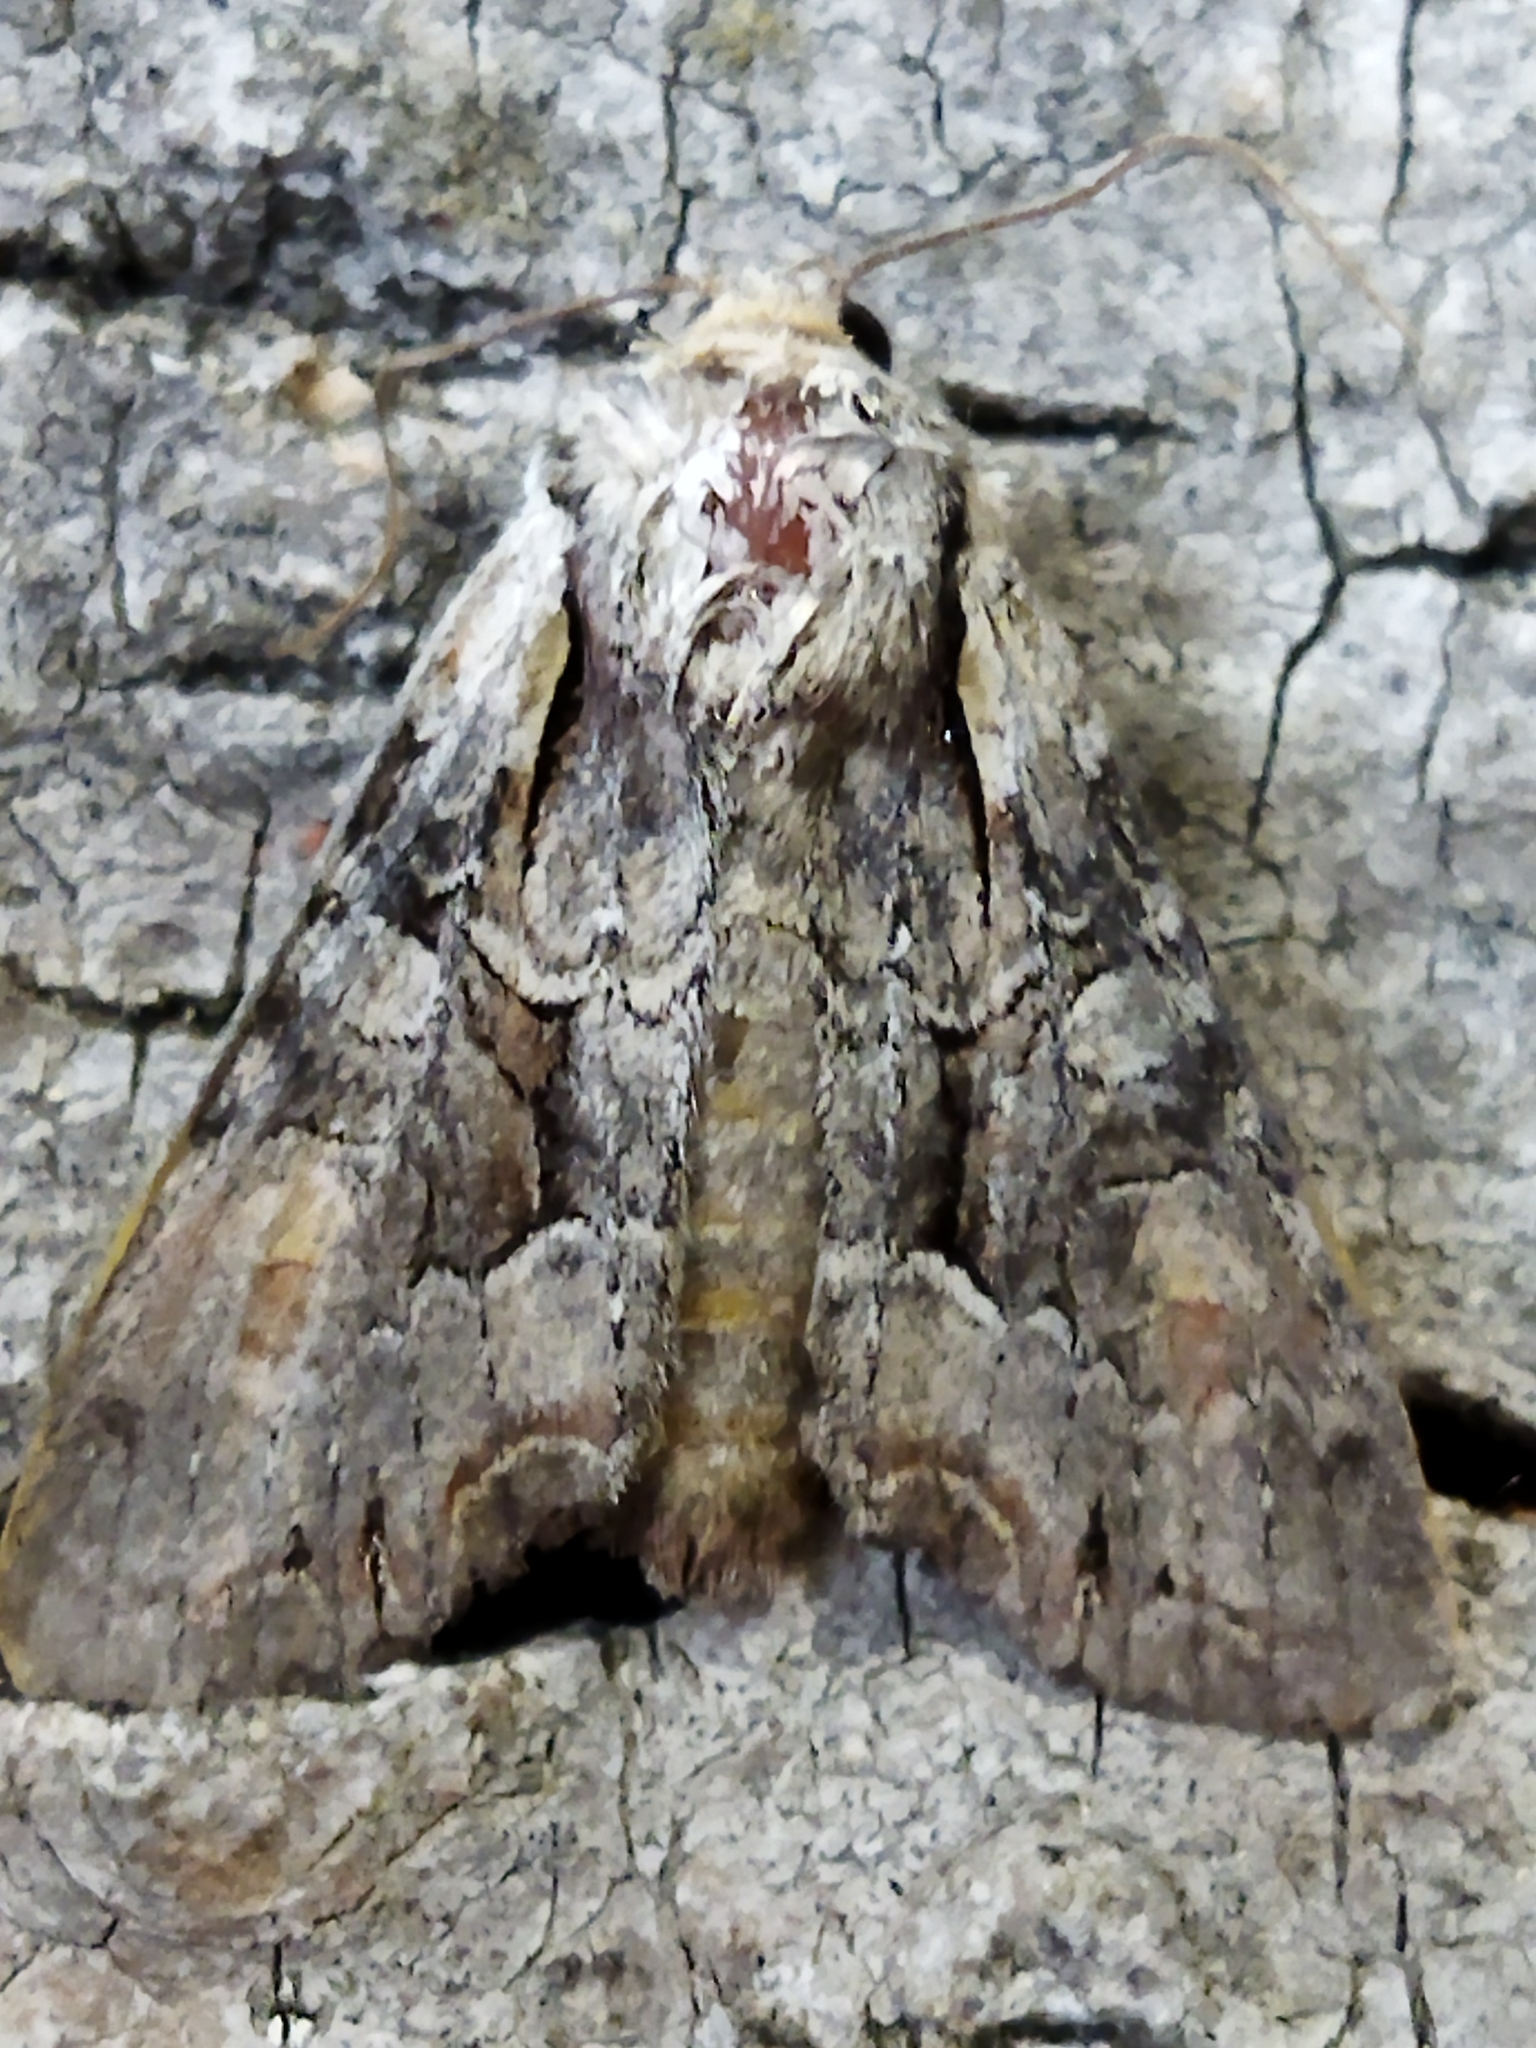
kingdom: Animalia
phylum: Arthropoda
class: Insecta
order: Lepidoptera
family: Noctuidae
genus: Lacanobia
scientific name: Lacanobia w-latinum
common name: Light brocade
